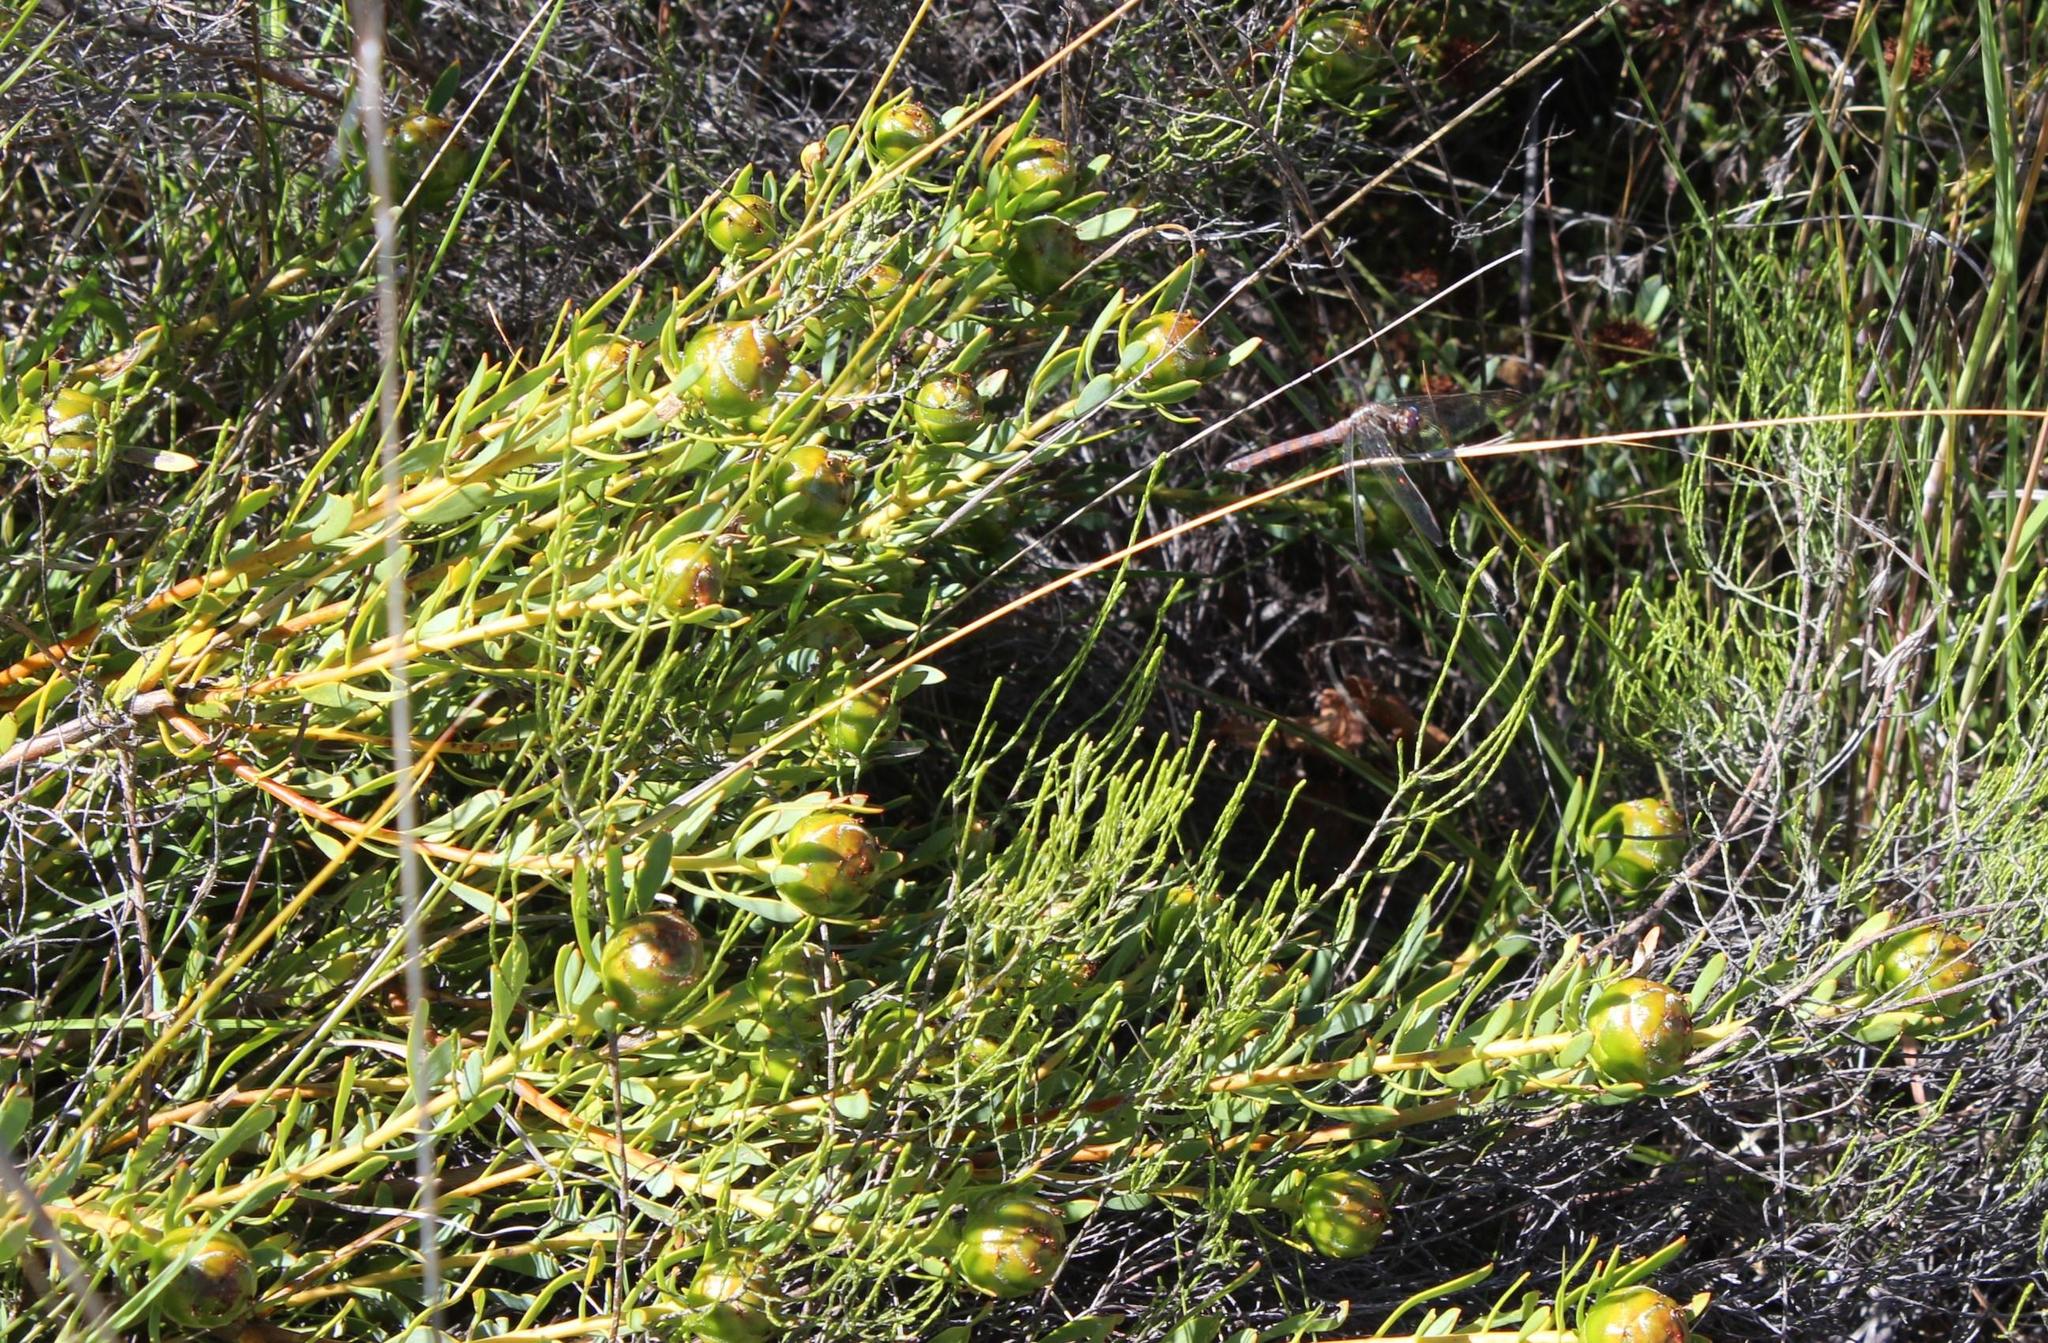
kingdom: Plantae
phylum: Tracheophyta
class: Magnoliopsida
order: Proteales
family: Proteaceae
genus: Leucadendron
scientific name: Leucadendron glaberrimum
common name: Common oily conebush
